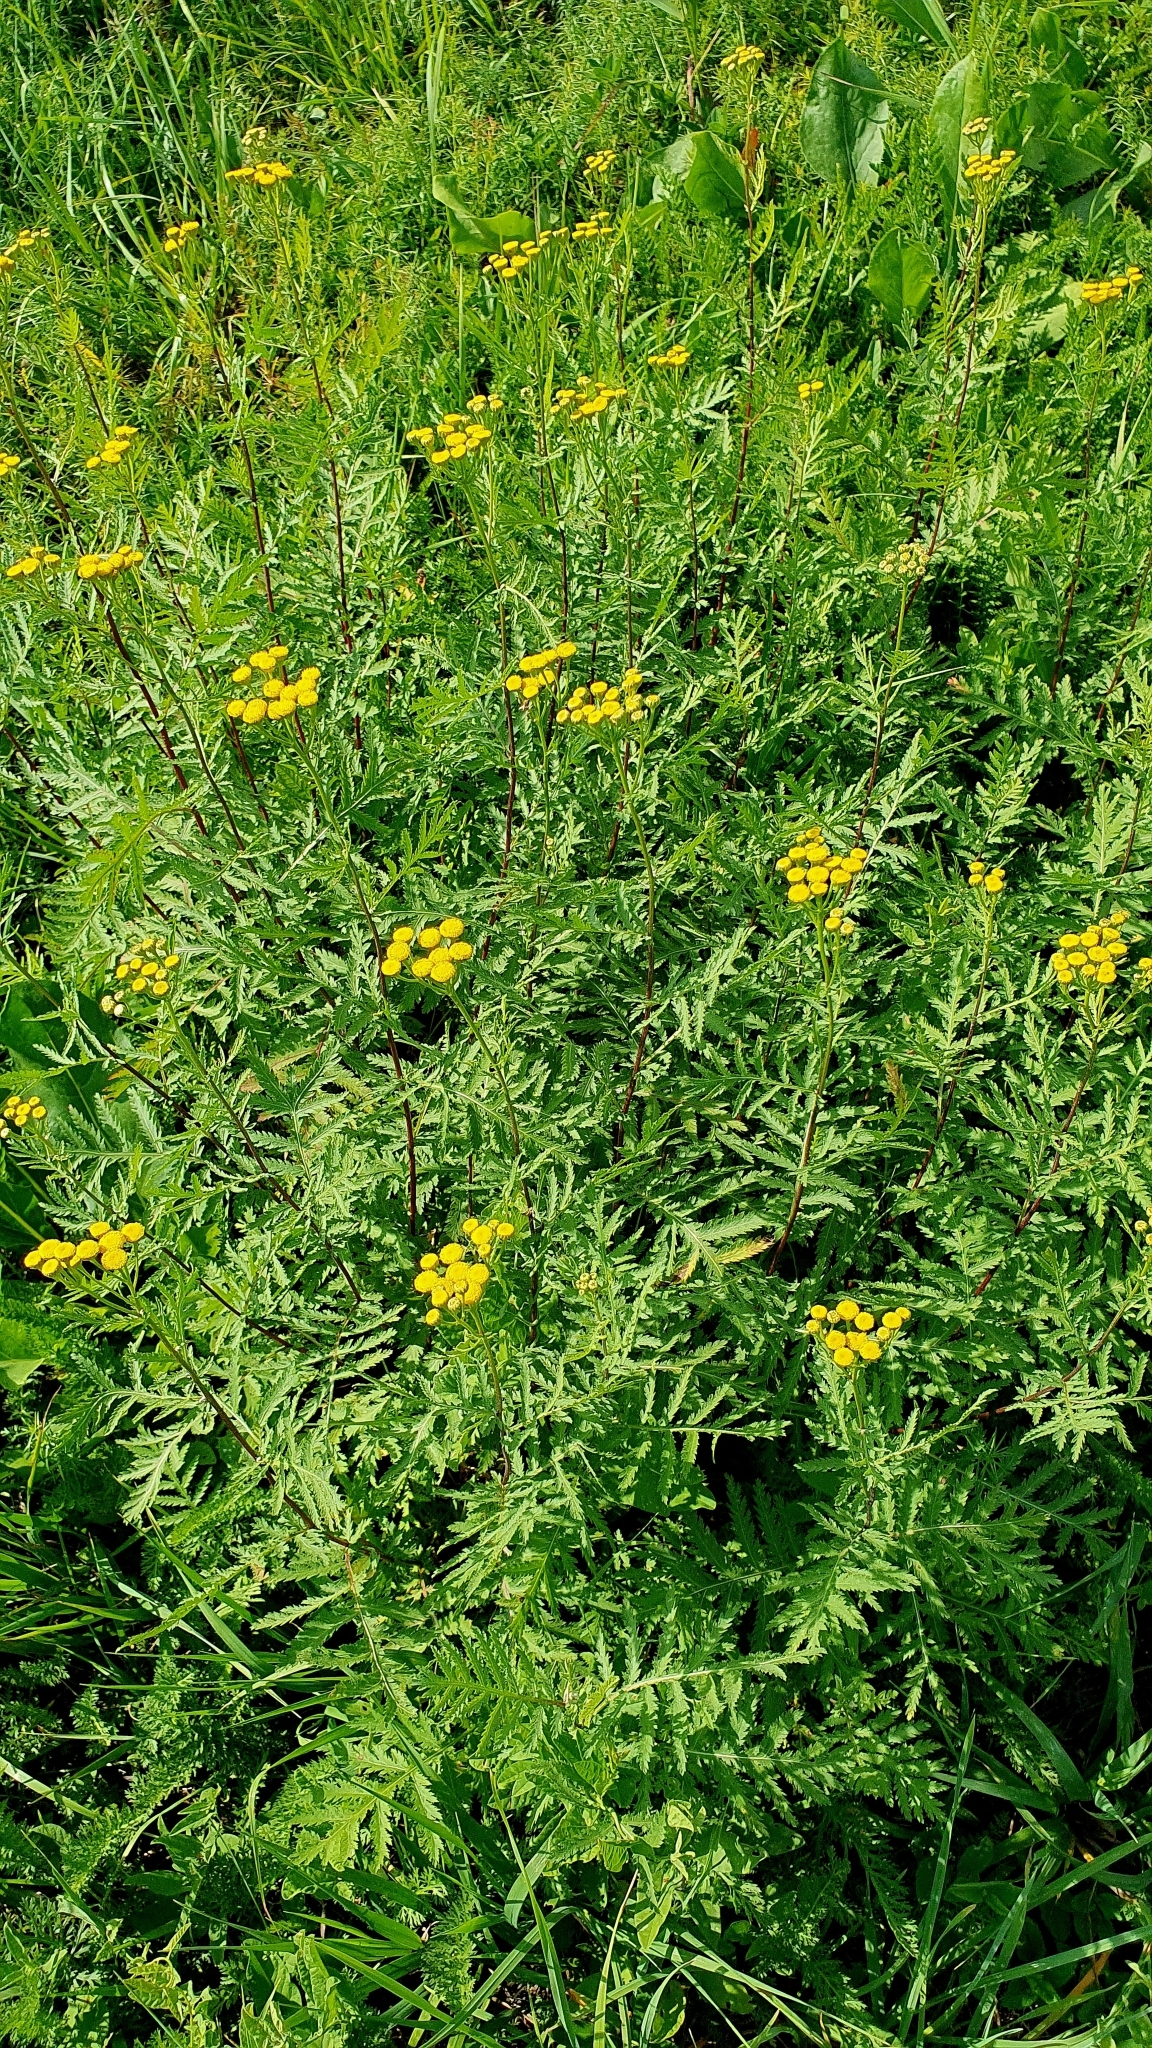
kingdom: Plantae
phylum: Tracheophyta
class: Magnoliopsida
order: Asterales
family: Asteraceae
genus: Tanacetum
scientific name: Tanacetum vulgare
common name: Common tansy
